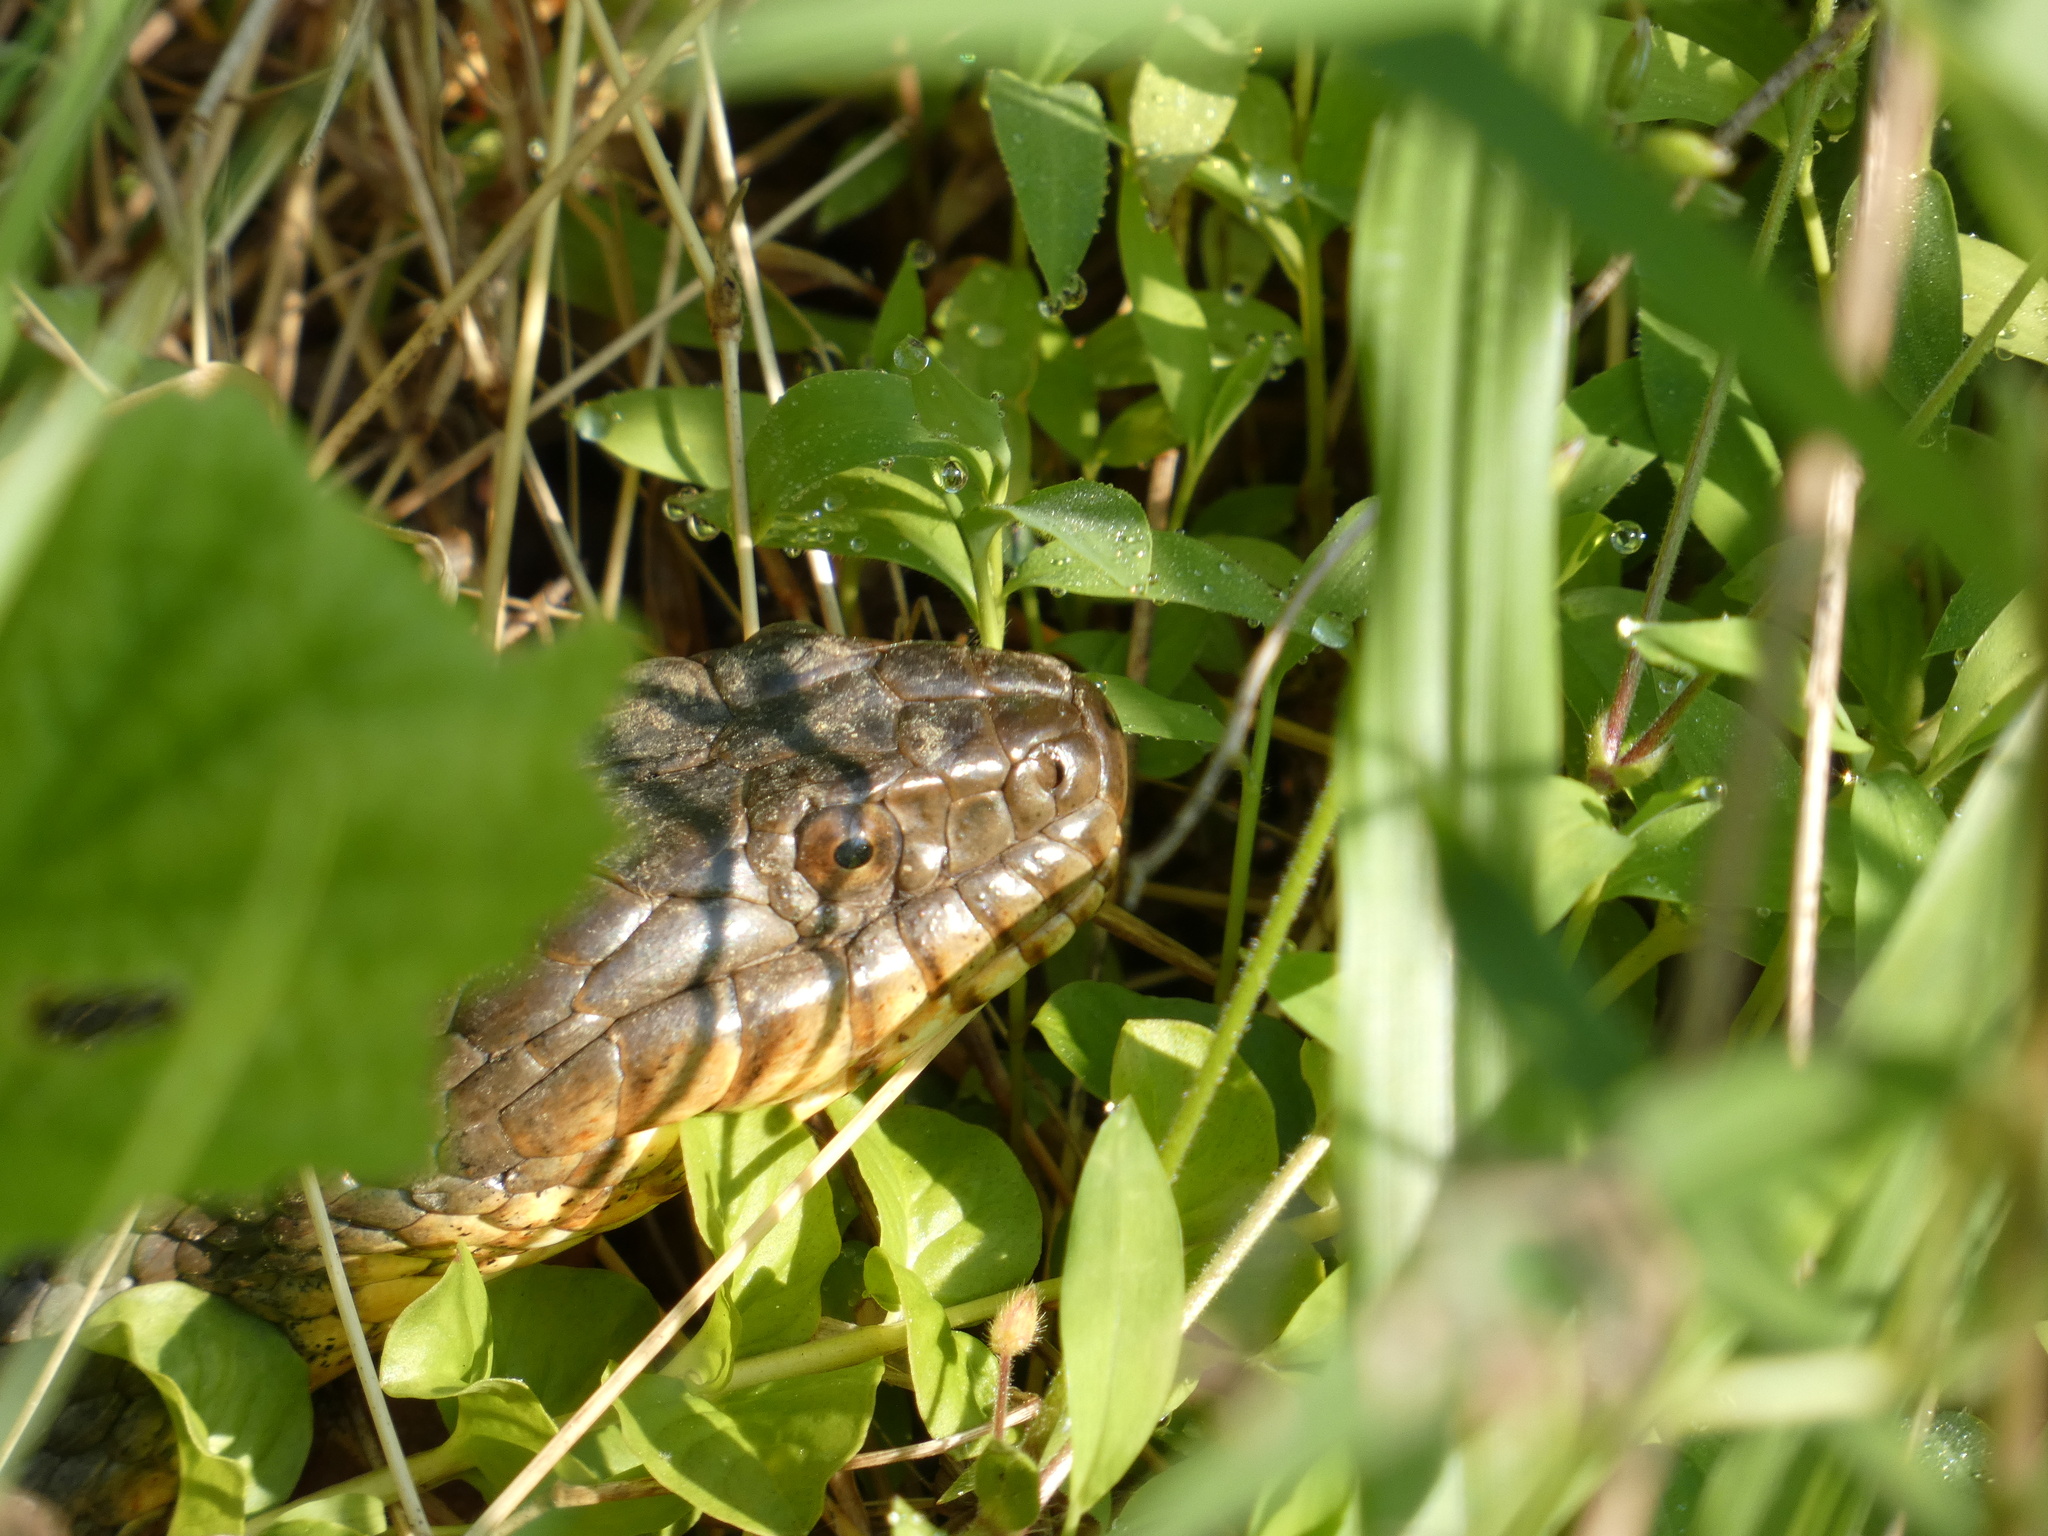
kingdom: Animalia
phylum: Chordata
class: Squamata
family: Colubridae
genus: Nerodia
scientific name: Nerodia sipedon
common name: Northern water snake
